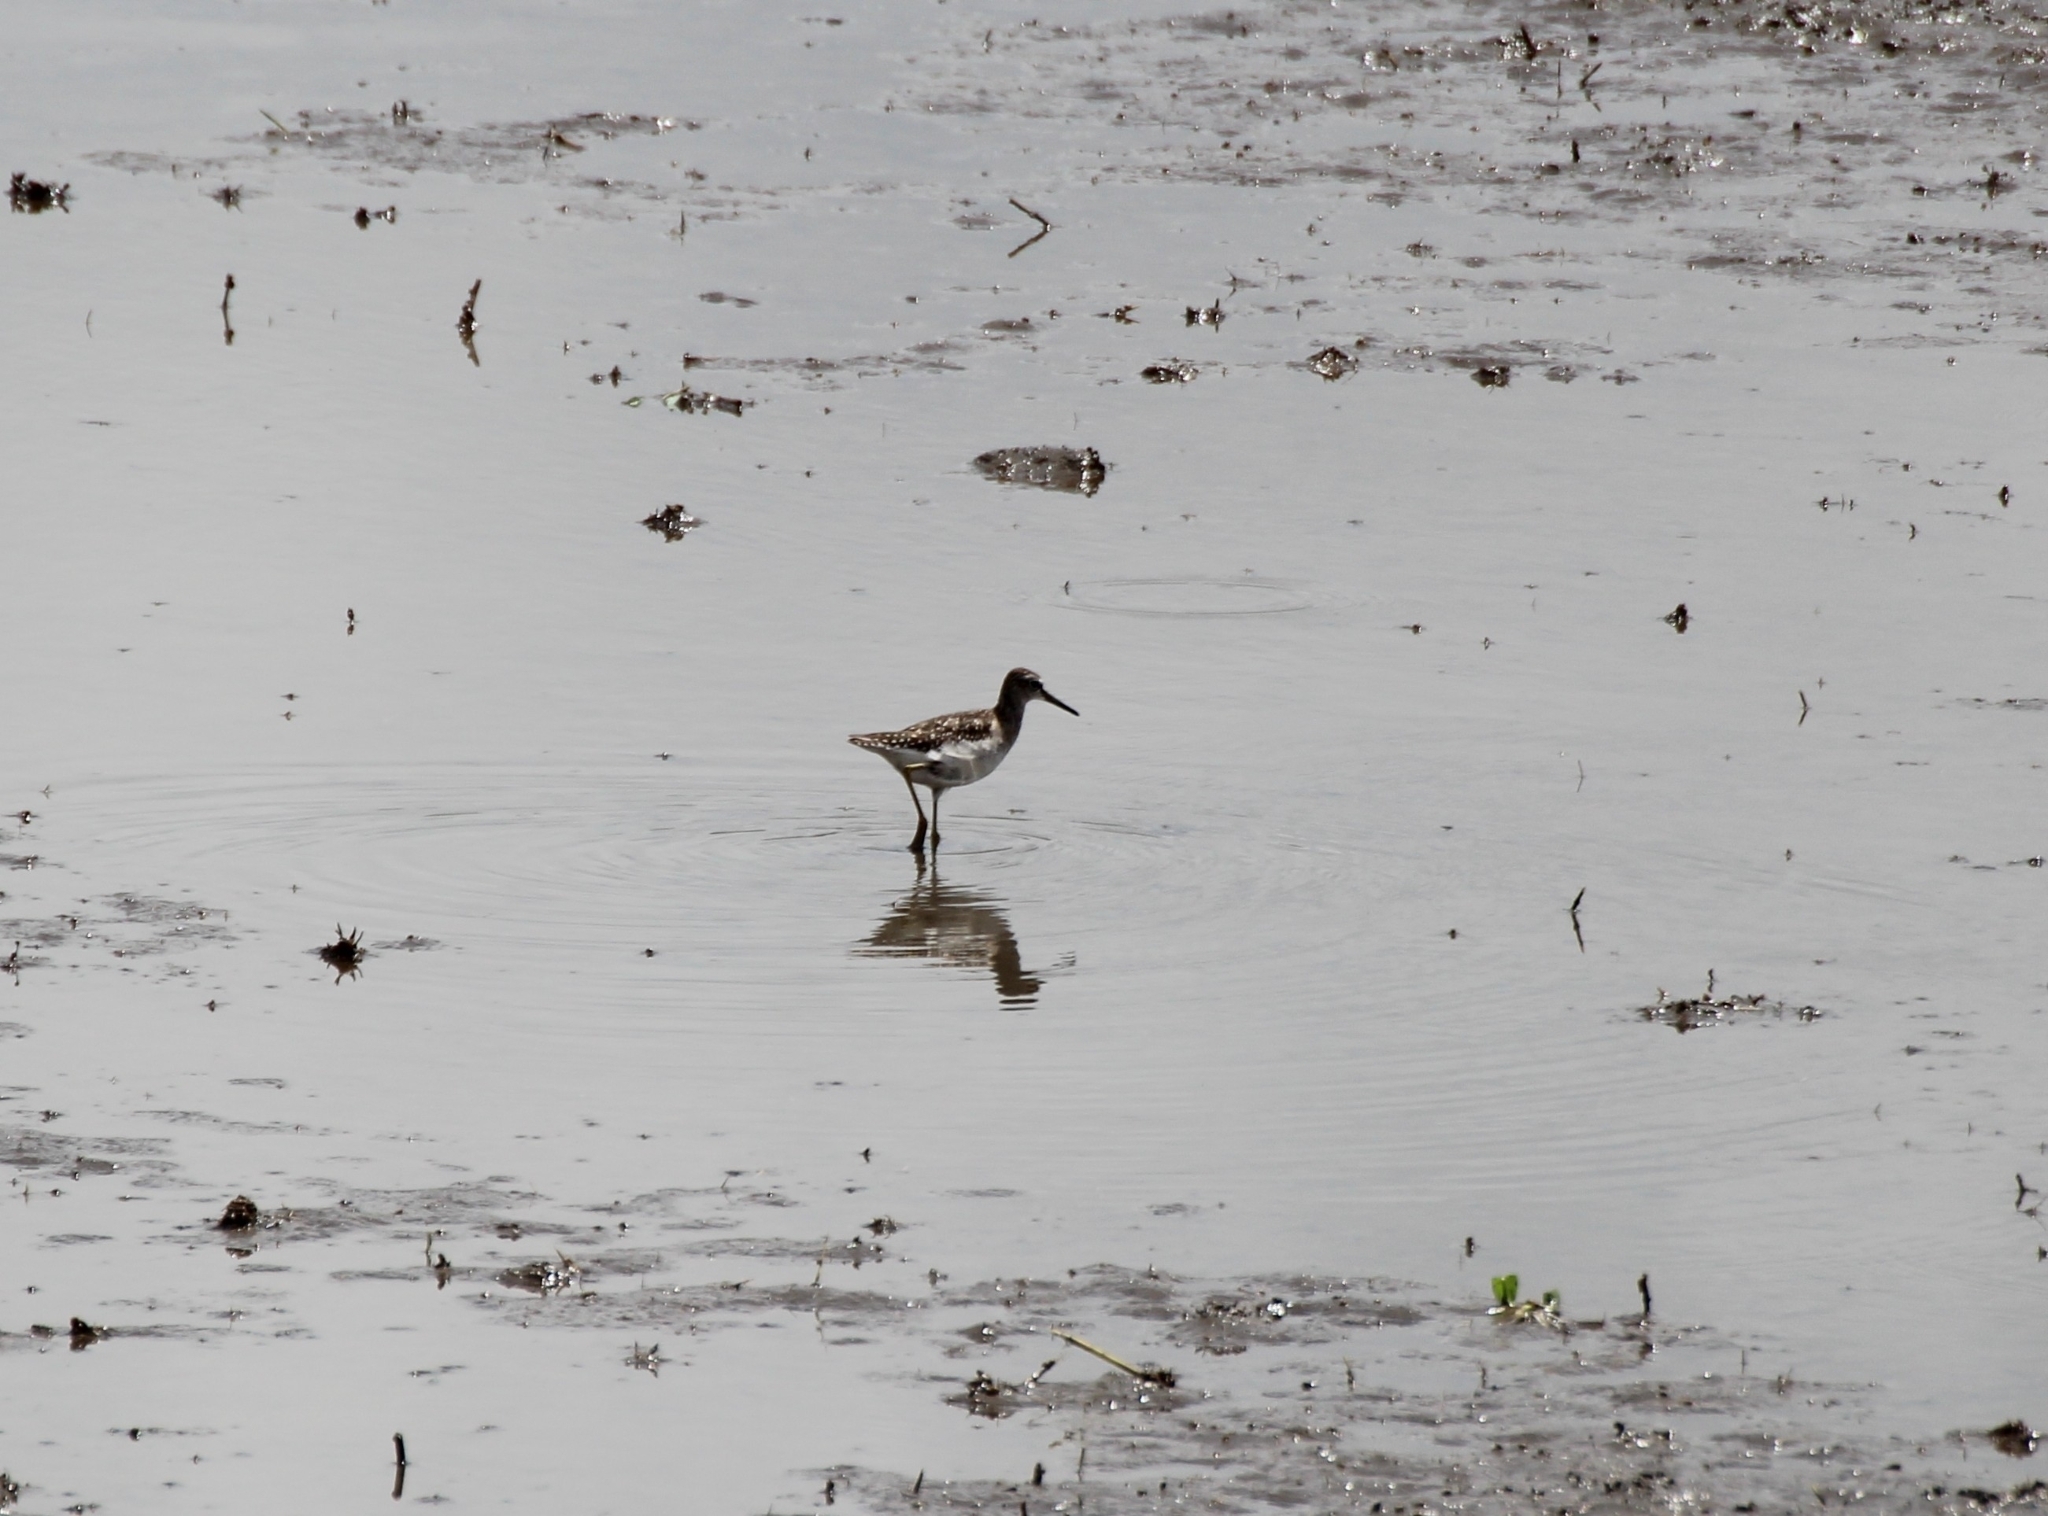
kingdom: Animalia
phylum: Chordata
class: Aves
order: Charadriiformes
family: Scolopacidae
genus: Tringa
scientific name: Tringa glareola
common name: Wood sandpiper
